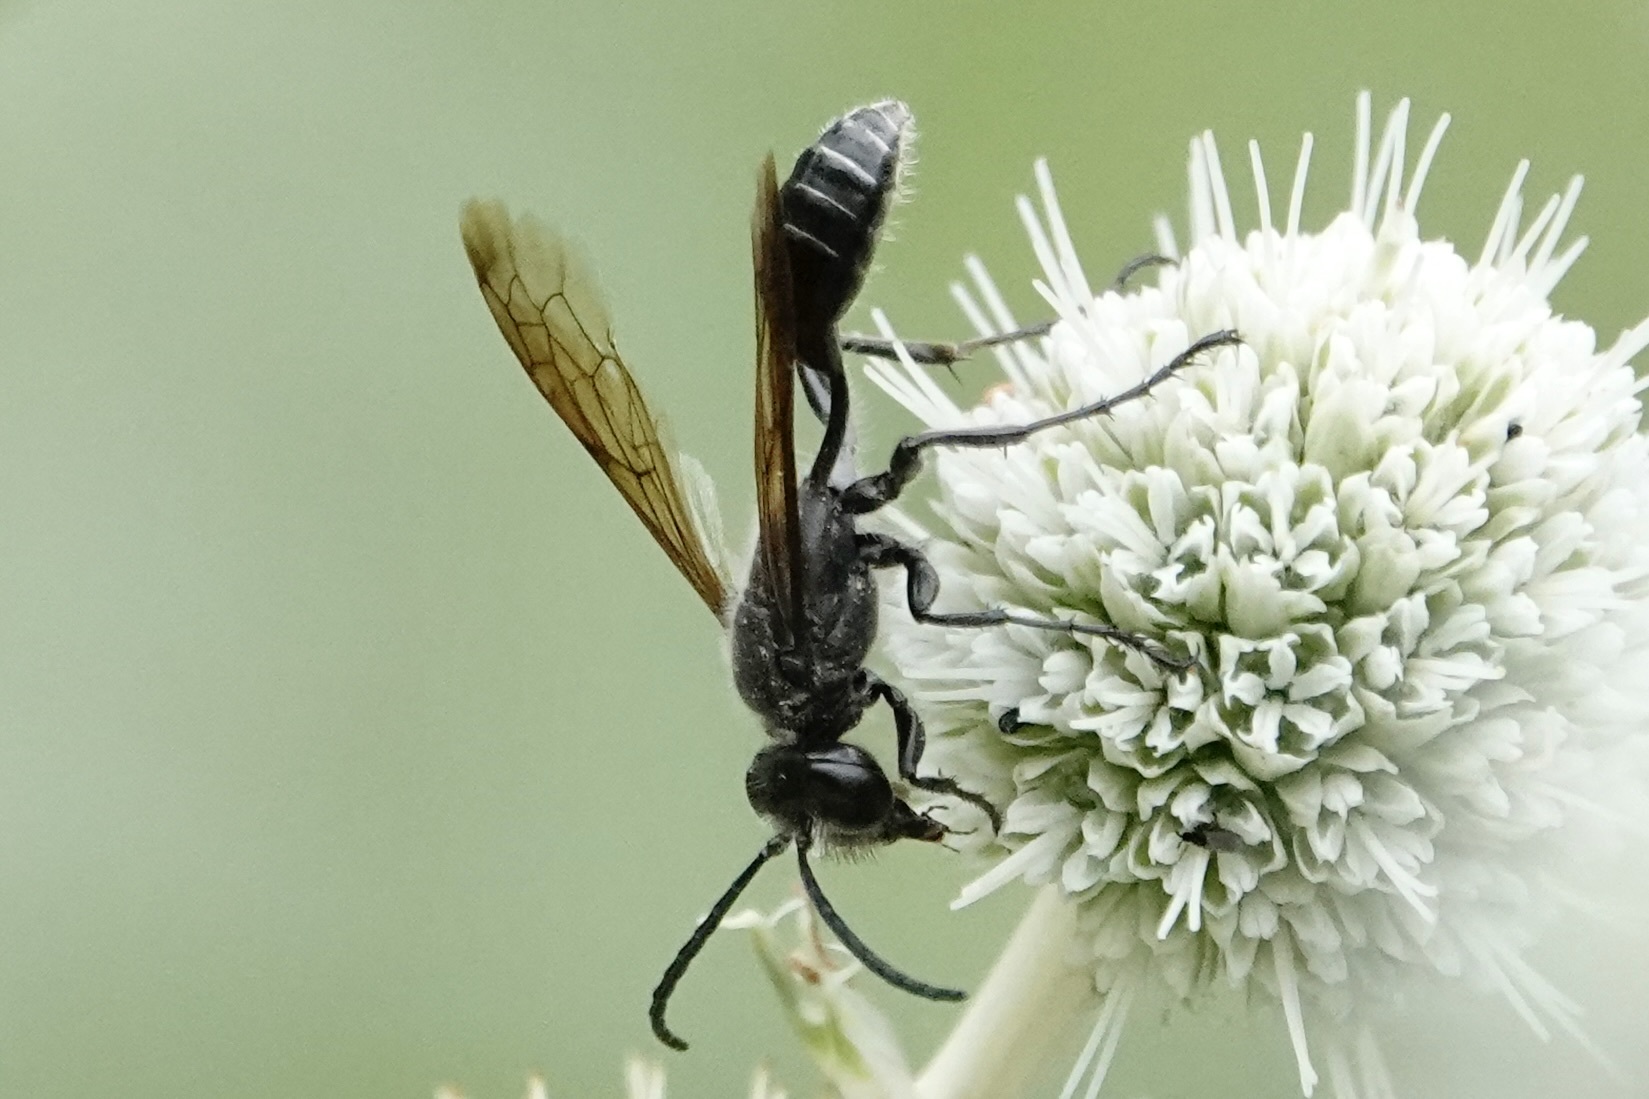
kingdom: Animalia
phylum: Arthropoda
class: Insecta
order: Hymenoptera
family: Sphecidae
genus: Isodontia
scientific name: Isodontia mexicana
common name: Mud dauber
